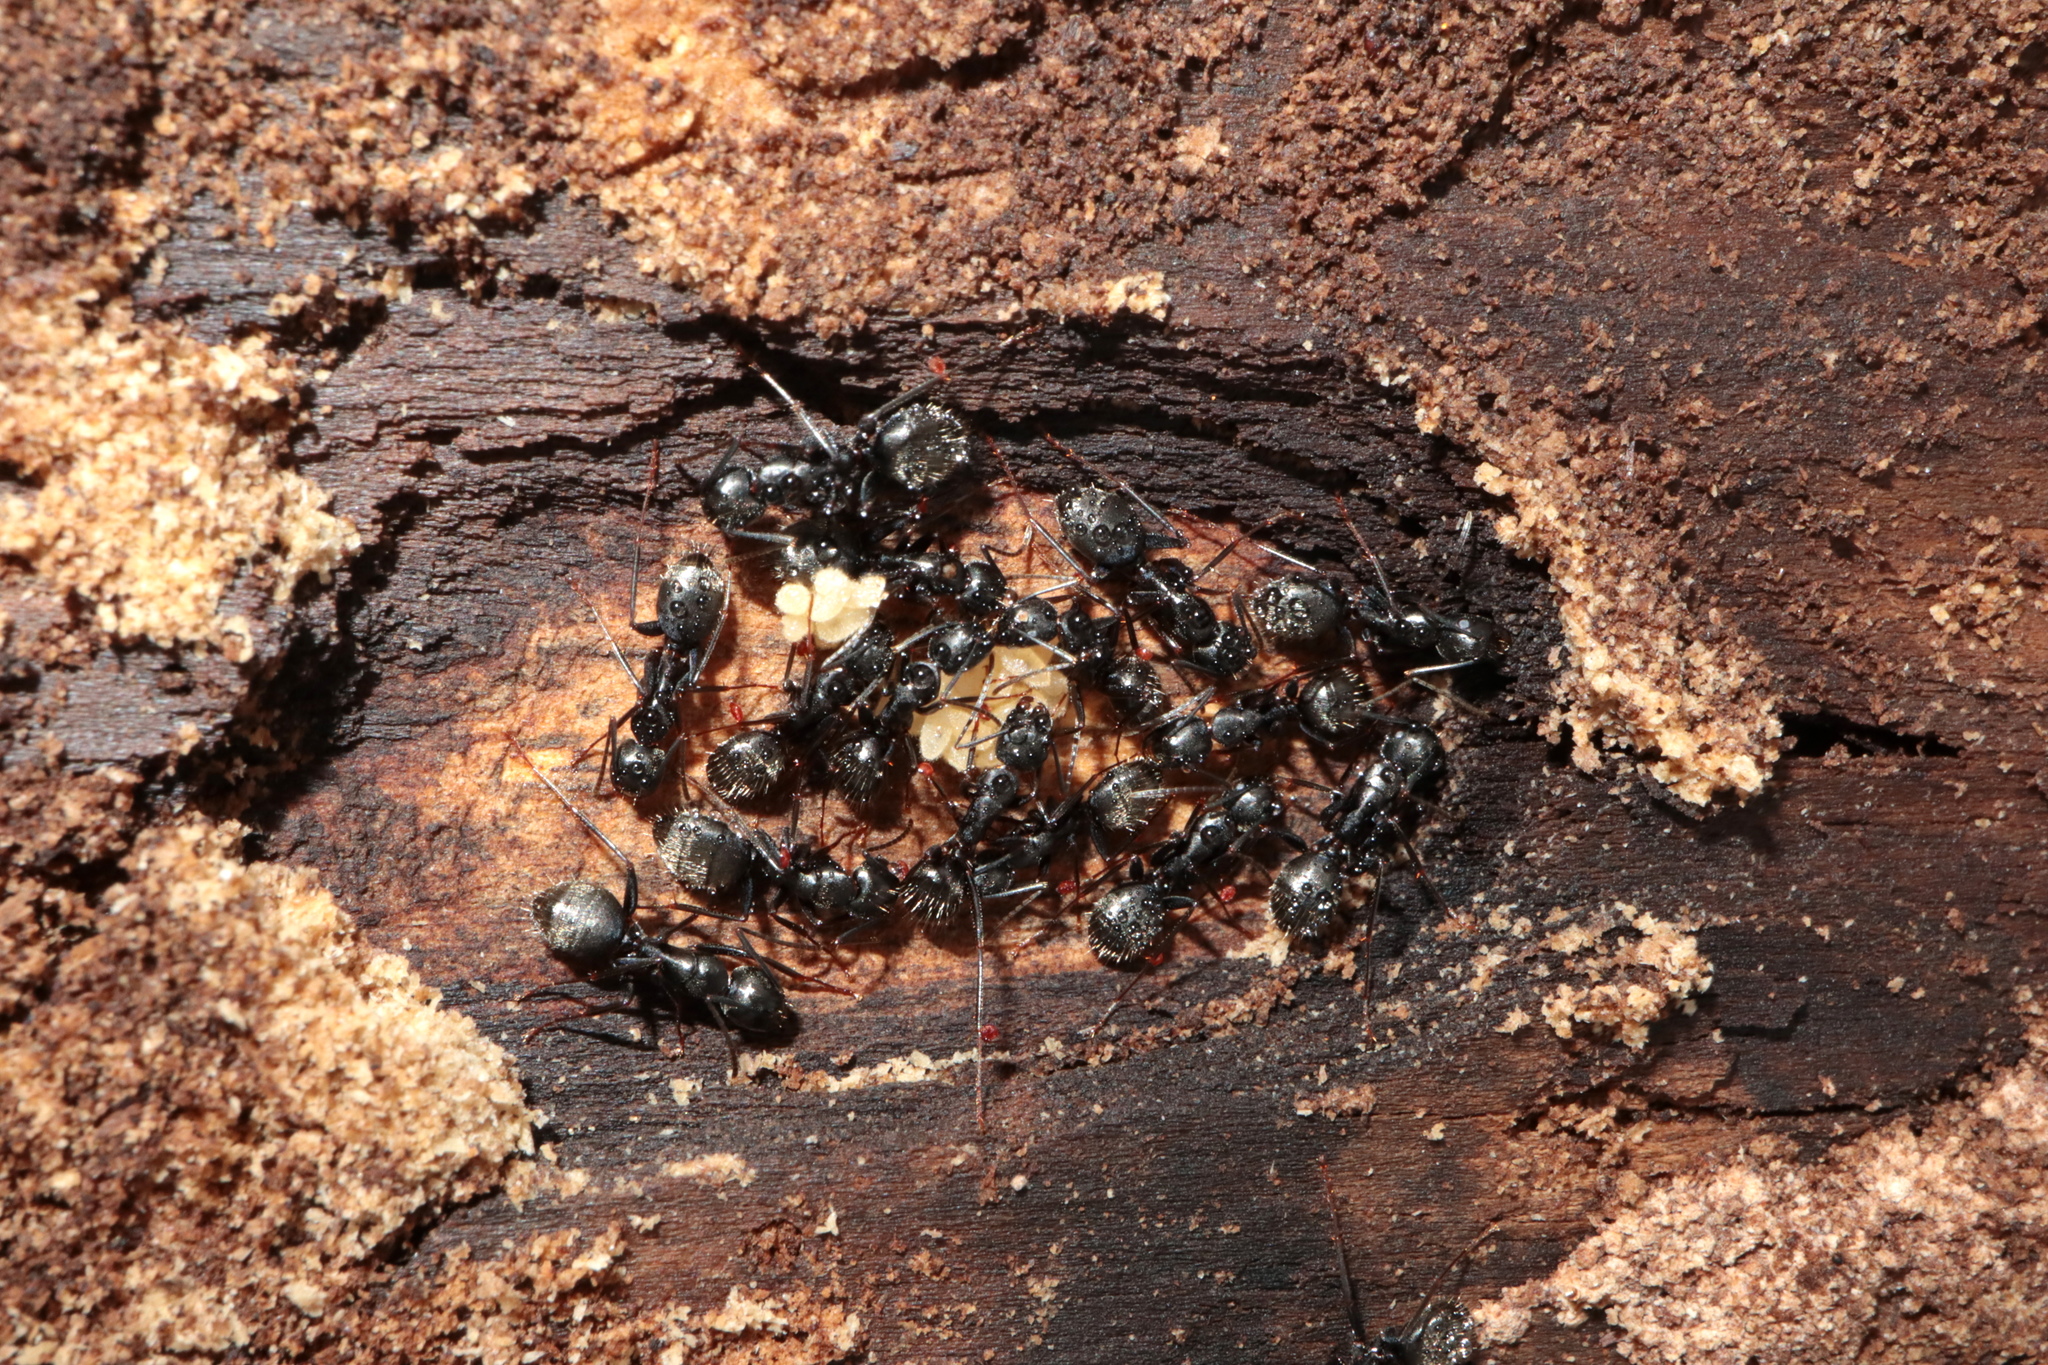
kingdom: Animalia
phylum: Arthropoda
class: Insecta
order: Hymenoptera
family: Formicidae
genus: Camponotus
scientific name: Camponotus pennsylvanicus
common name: Black carpenter ant
